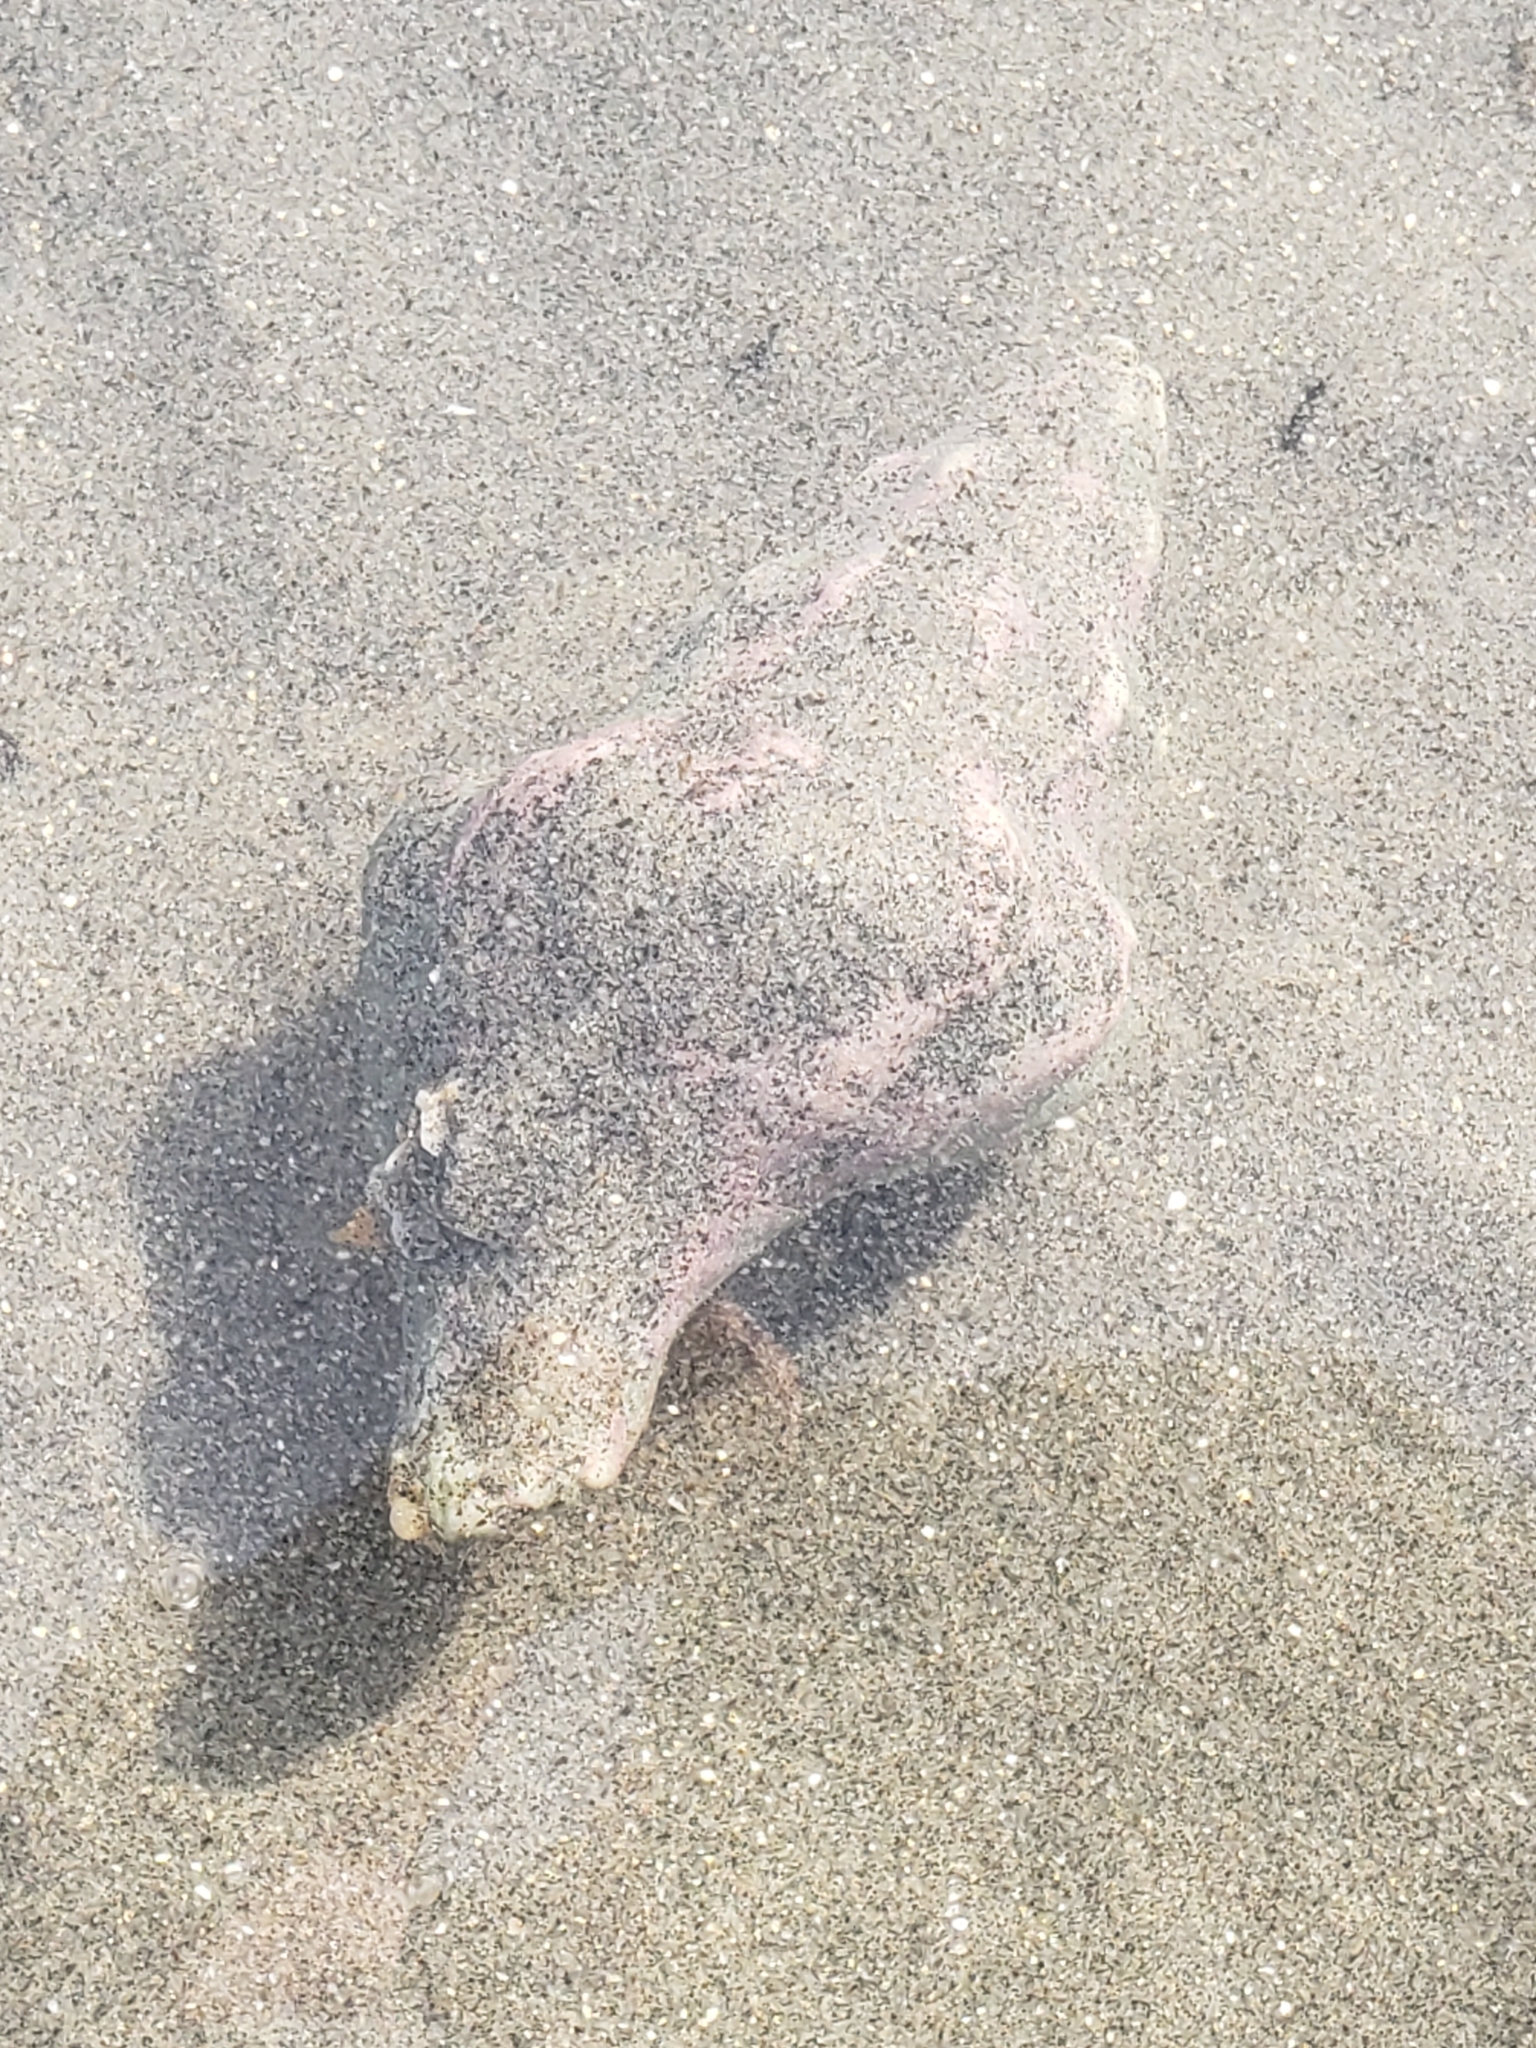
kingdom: Animalia
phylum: Mollusca
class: Gastropoda
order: Neogastropoda
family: Austrosiphonidae
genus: Kelletia
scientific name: Kelletia kelletii
